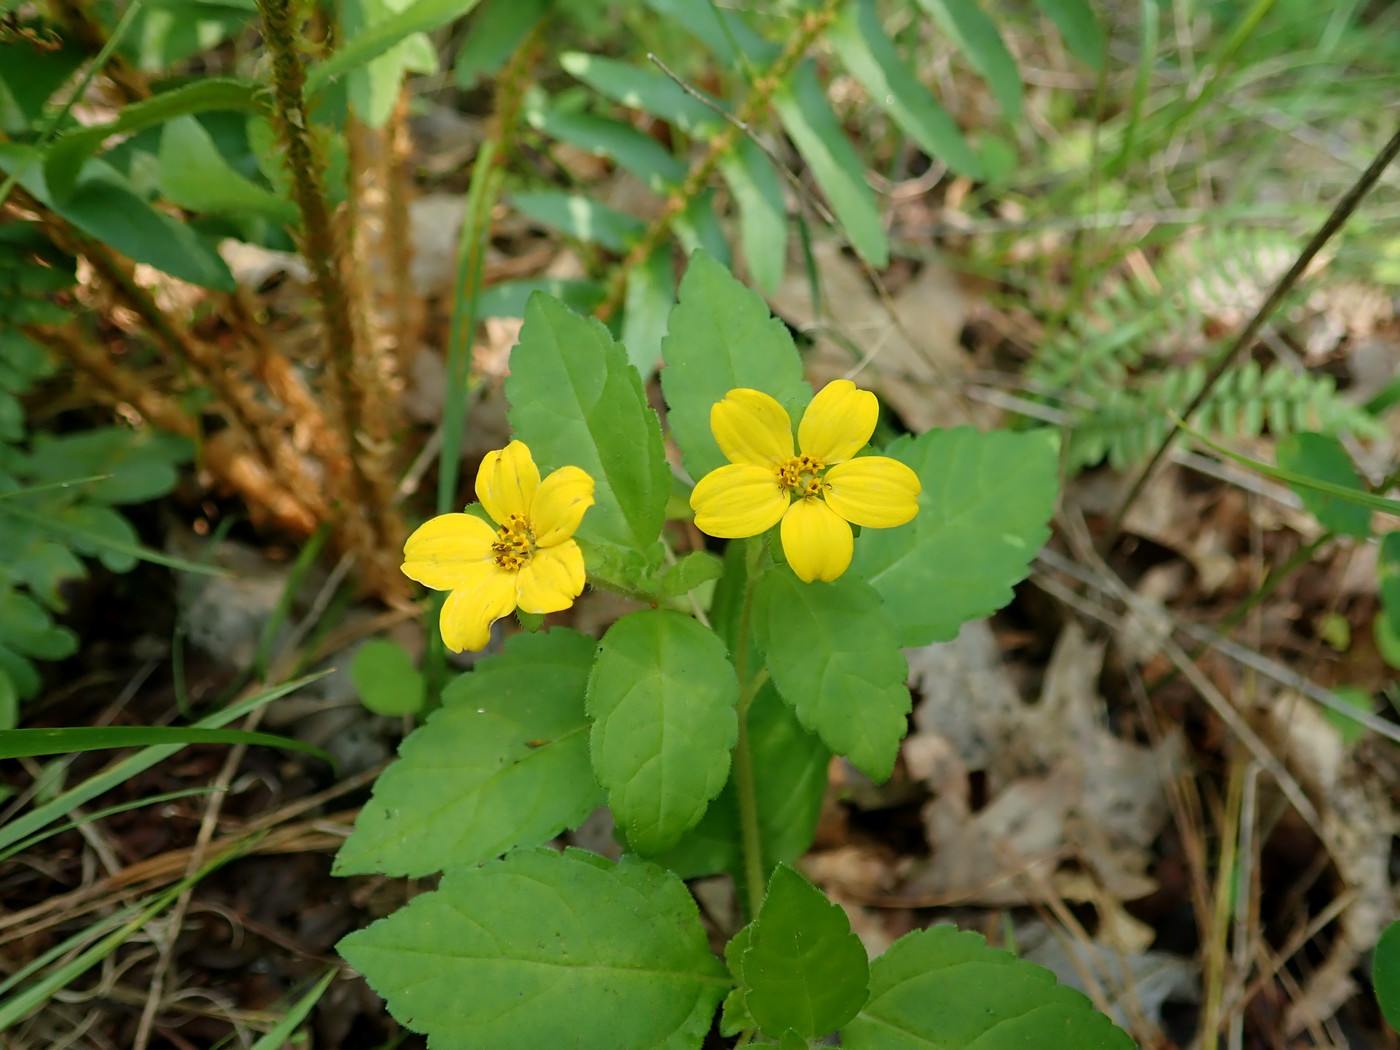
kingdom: Plantae
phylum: Tracheophyta
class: Magnoliopsida
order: Asterales
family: Asteraceae
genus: Chrysogonum
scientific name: Chrysogonum virginianum
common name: Golden-knee
